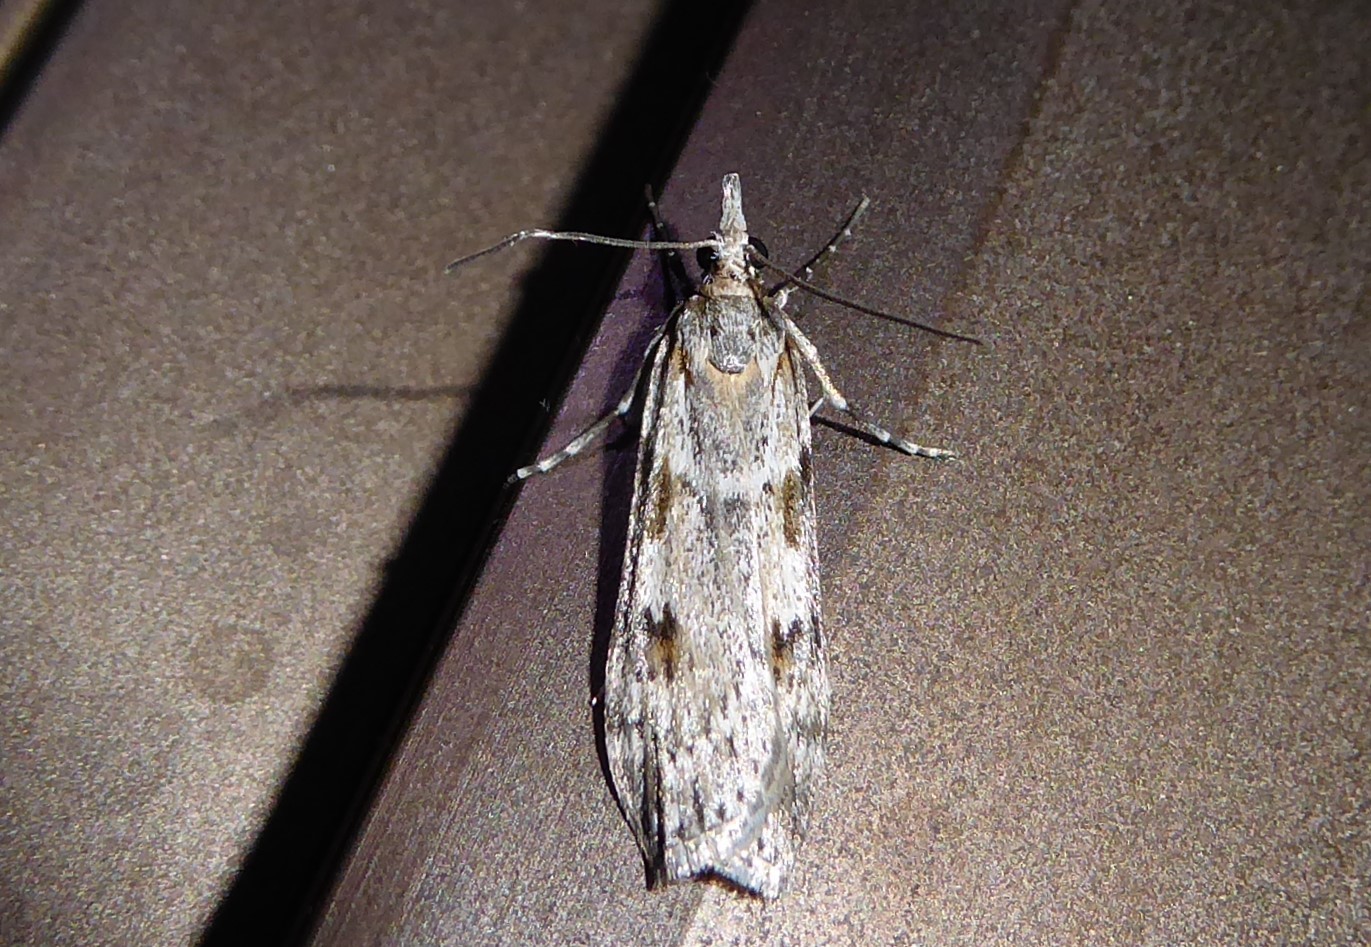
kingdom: Animalia
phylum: Arthropoda
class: Insecta
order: Lepidoptera
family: Crambidae
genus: Scoparia
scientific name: Scoparia halopis
